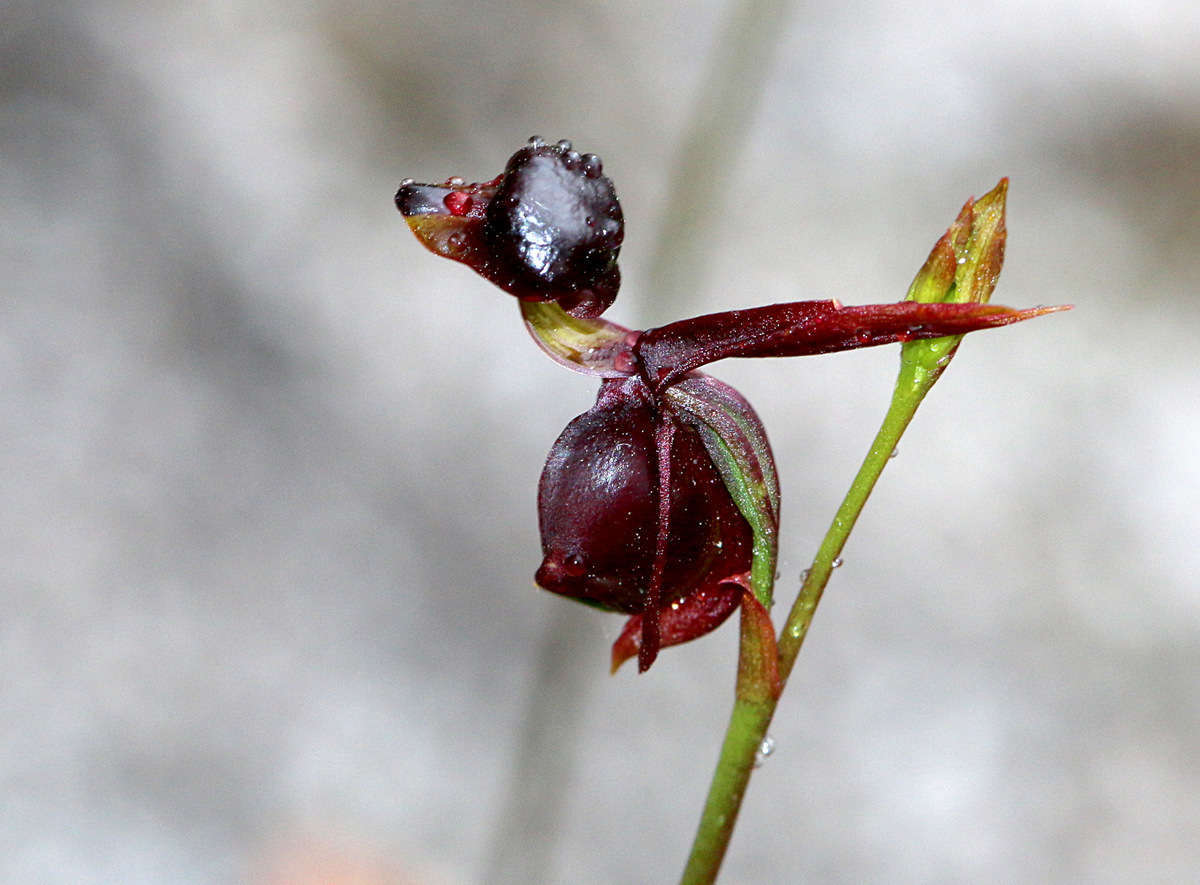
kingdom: Plantae
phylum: Tracheophyta
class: Liliopsida
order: Asparagales
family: Orchidaceae
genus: Caleana
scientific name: Caleana major
